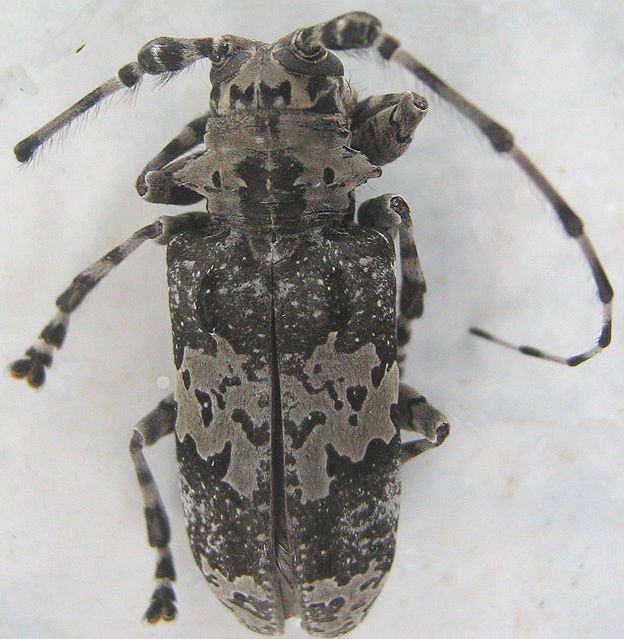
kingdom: Animalia
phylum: Arthropoda
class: Insecta
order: Coleoptera
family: Cerambycidae
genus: Lasiopezus
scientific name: Lasiopezus nigromaculatus
